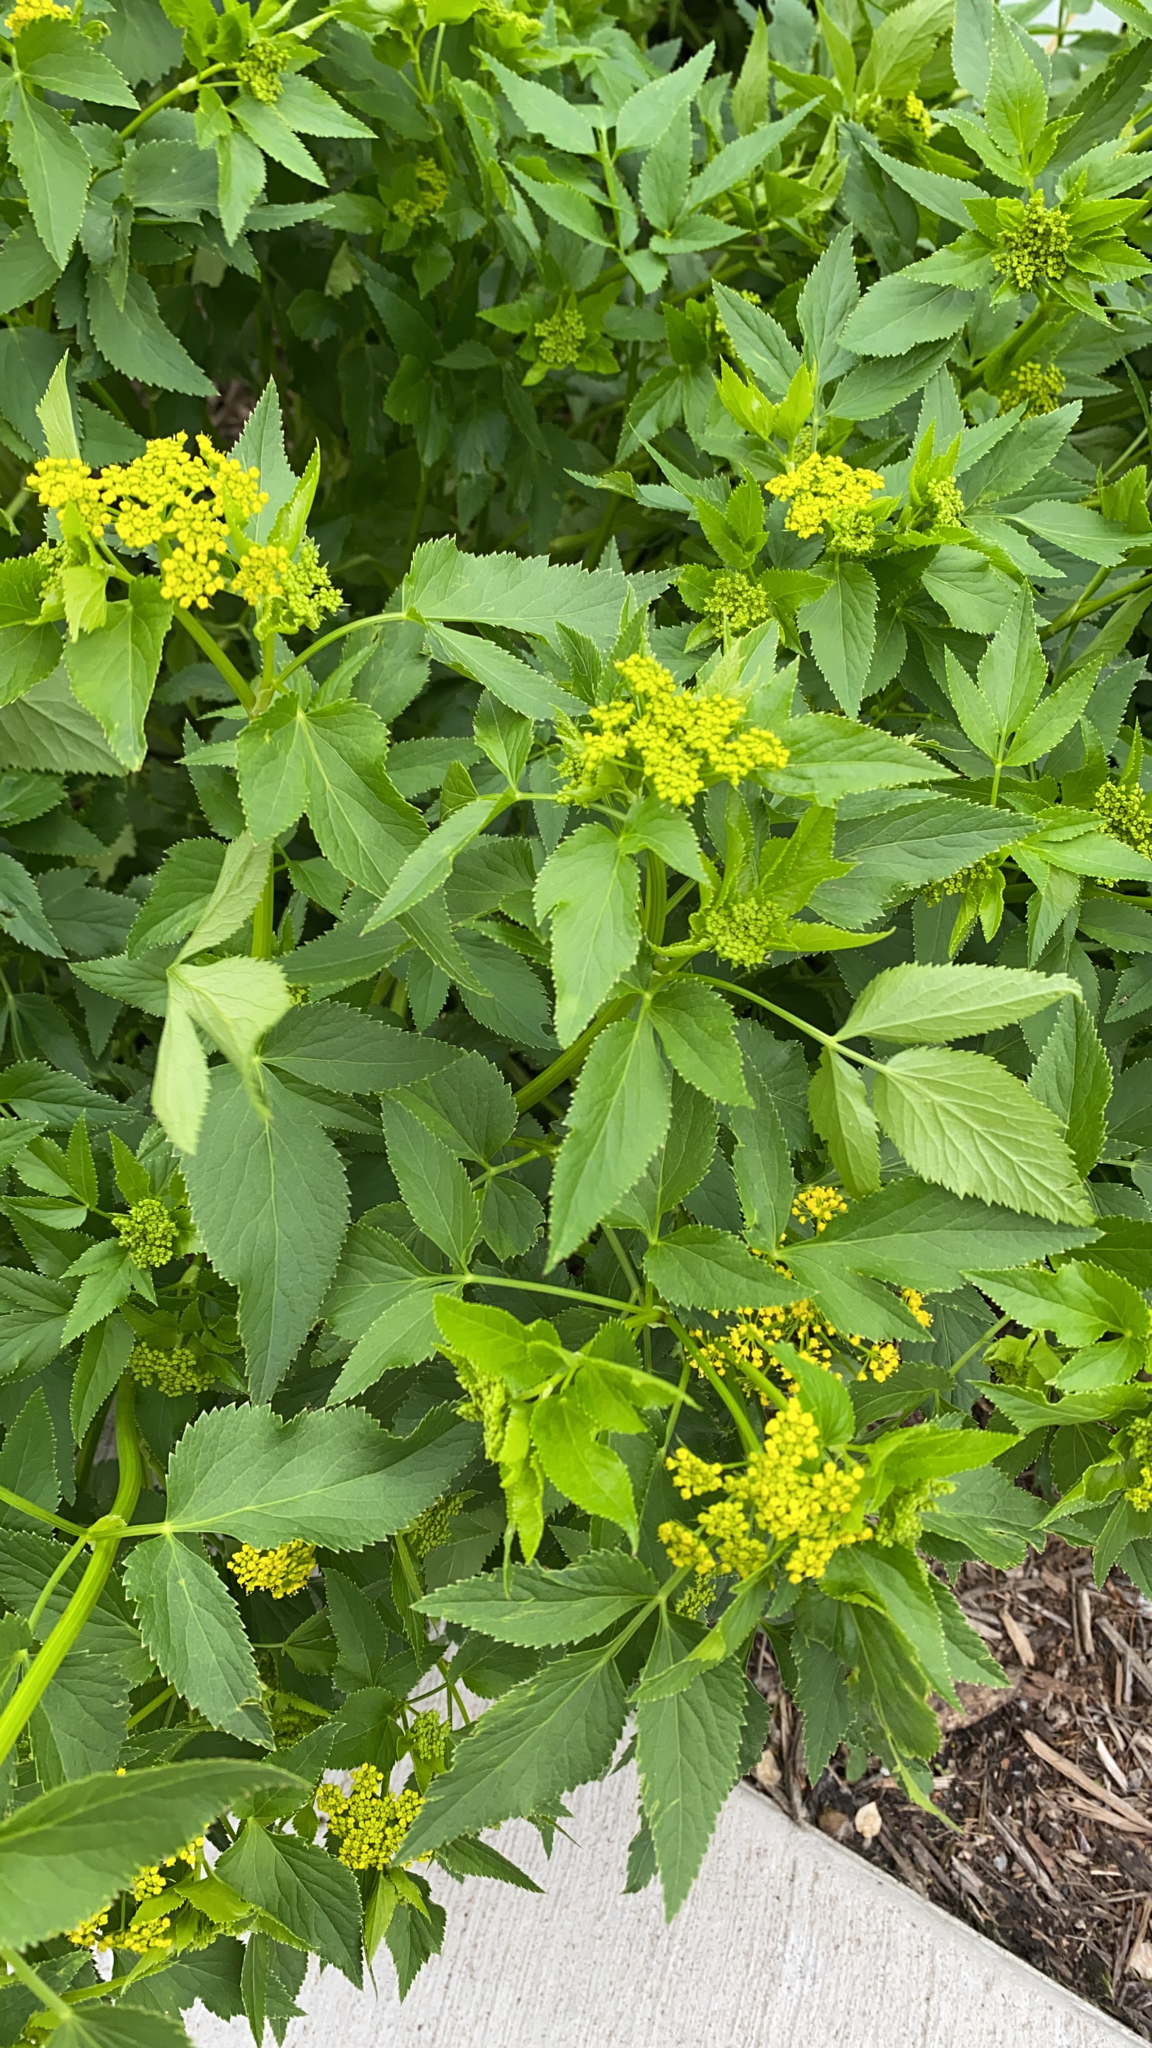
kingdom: Plantae
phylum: Tracheophyta
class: Magnoliopsida
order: Apiales
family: Apiaceae
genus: Zizia
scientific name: Zizia aurea
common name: Golden alexanders
